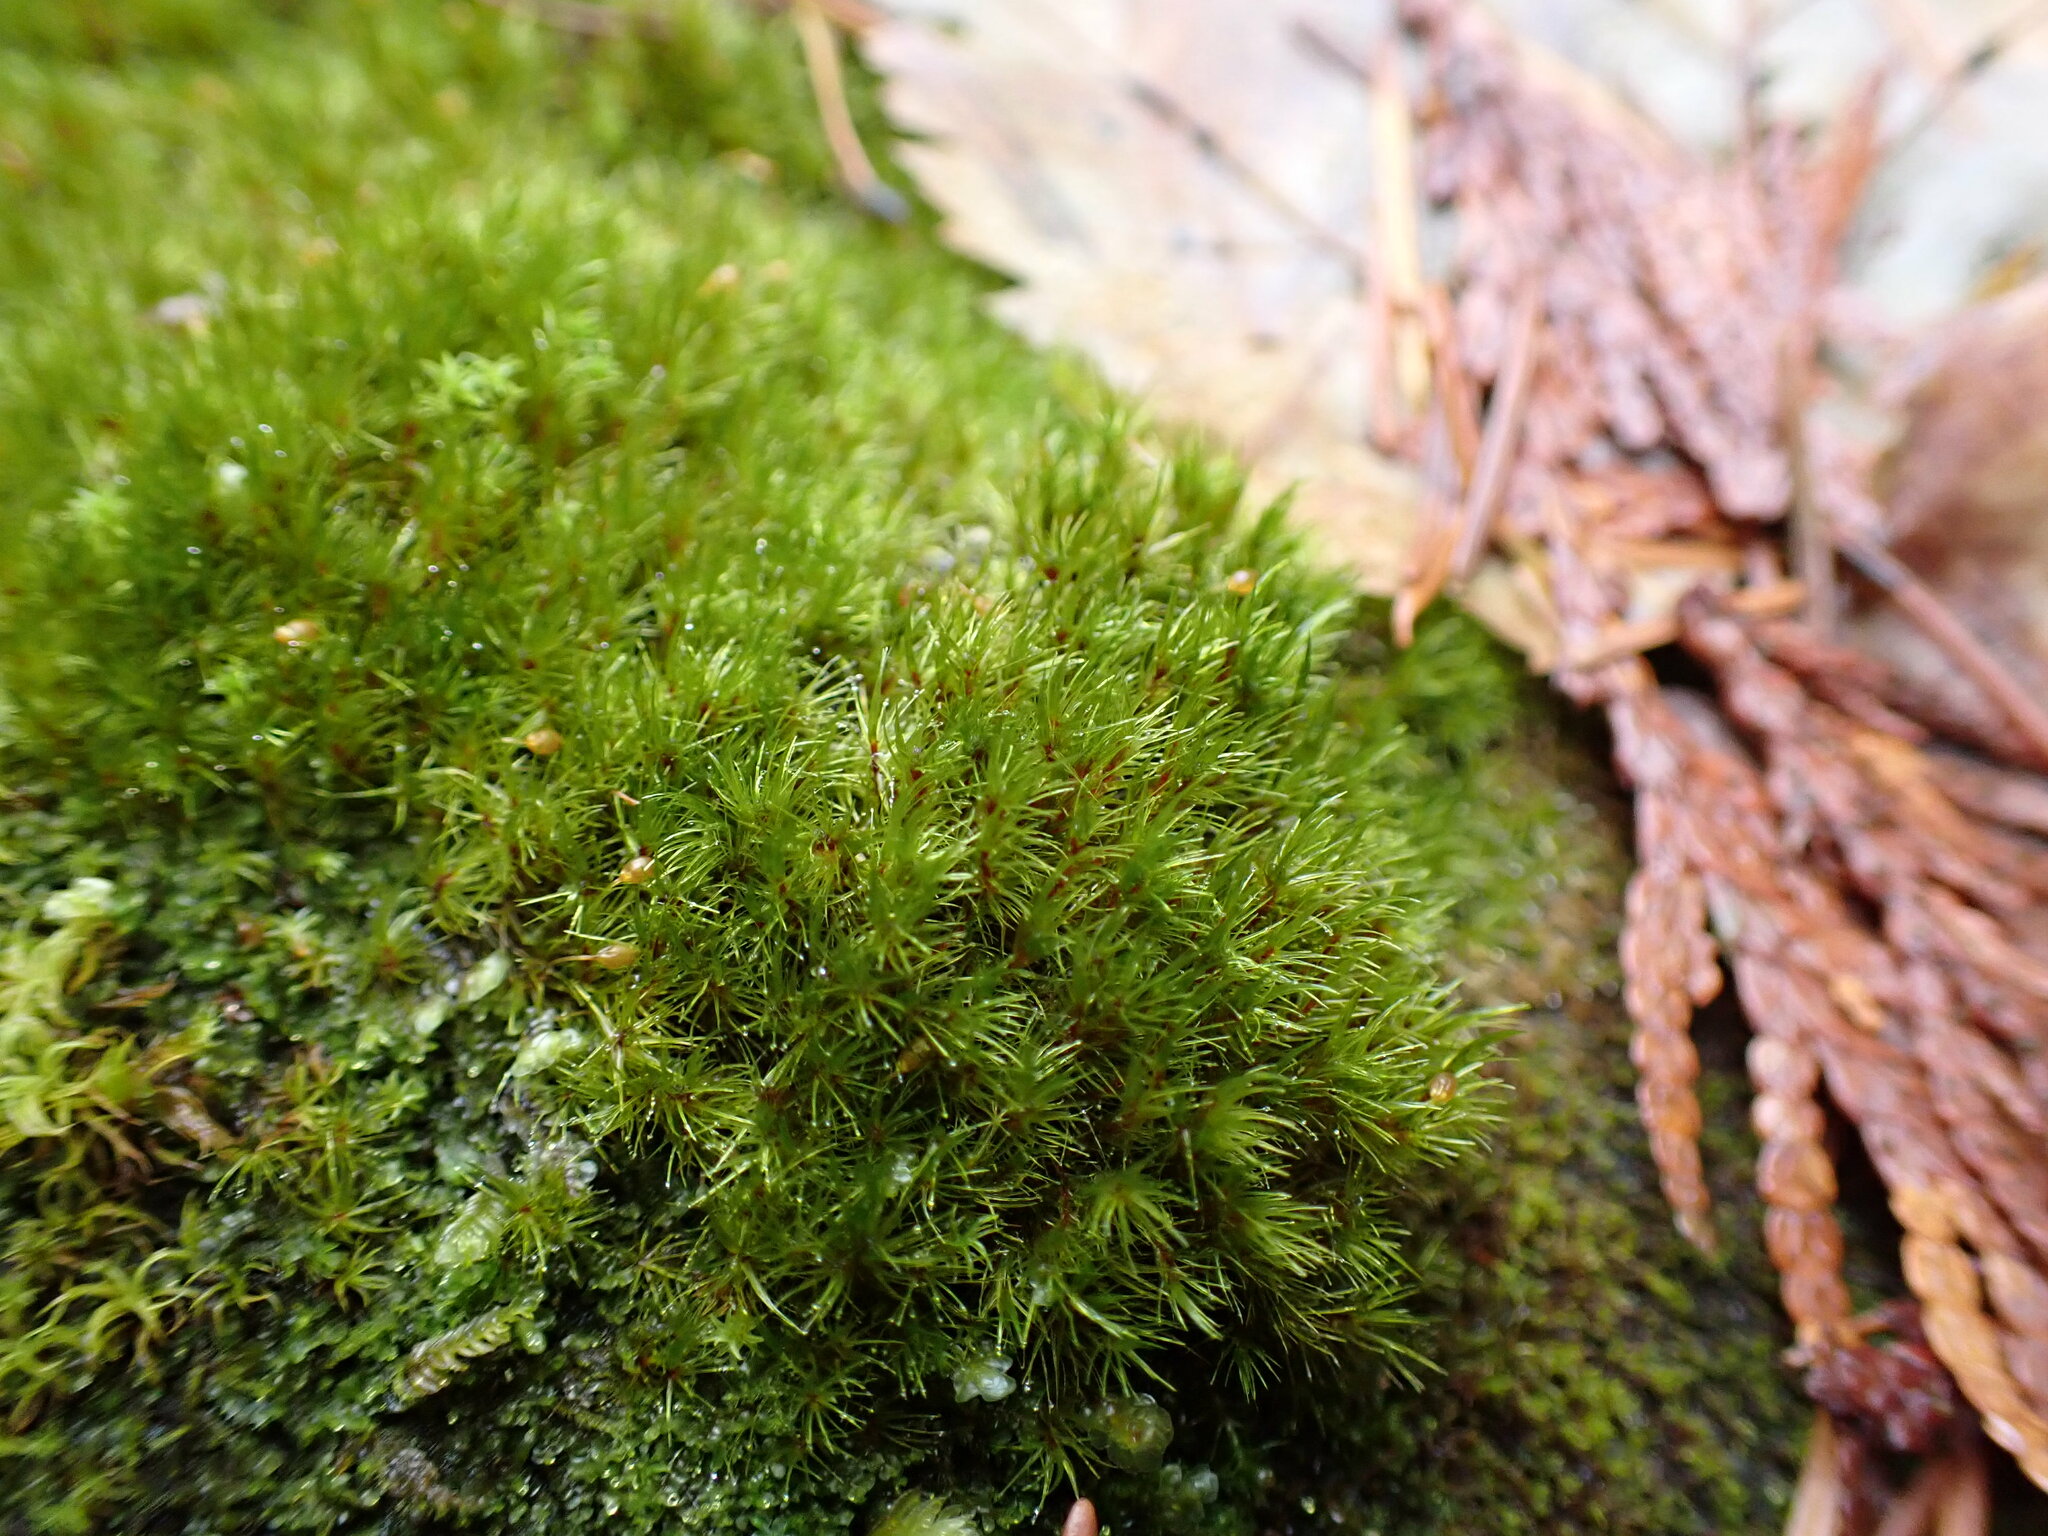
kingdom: Plantae
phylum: Bryophyta
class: Bryopsida
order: Grimmiales
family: Seligeriaceae
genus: Blindia
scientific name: Blindia acuta
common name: Sharp-leaved blind's moss
